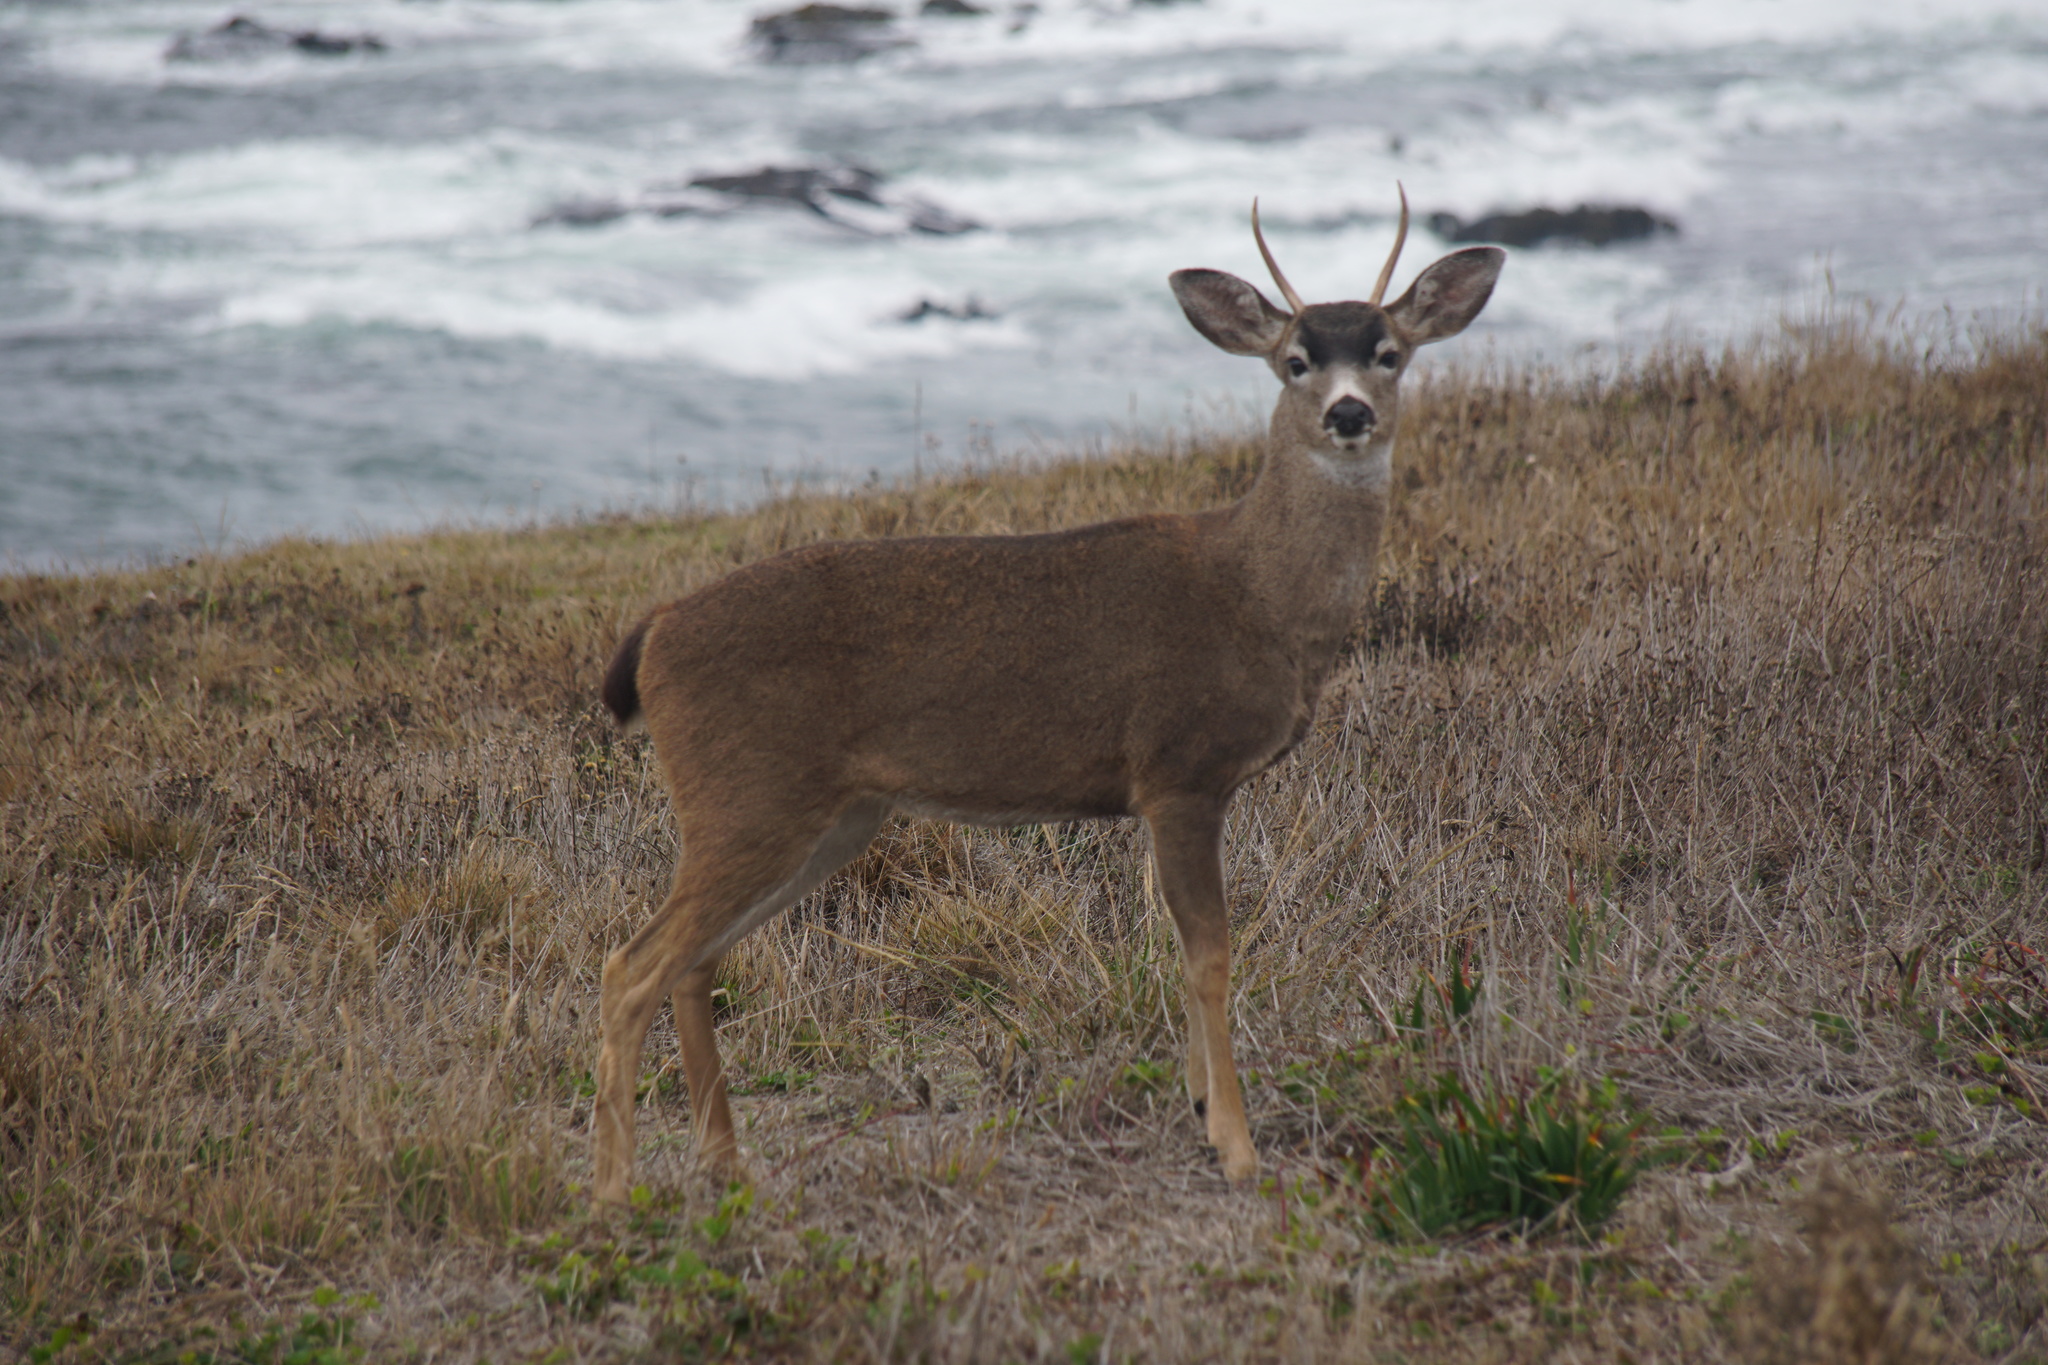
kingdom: Animalia
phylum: Chordata
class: Mammalia
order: Artiodactyla
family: Cervidae
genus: Odocoileus
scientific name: Odocoileus hemionus
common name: Mule deer
